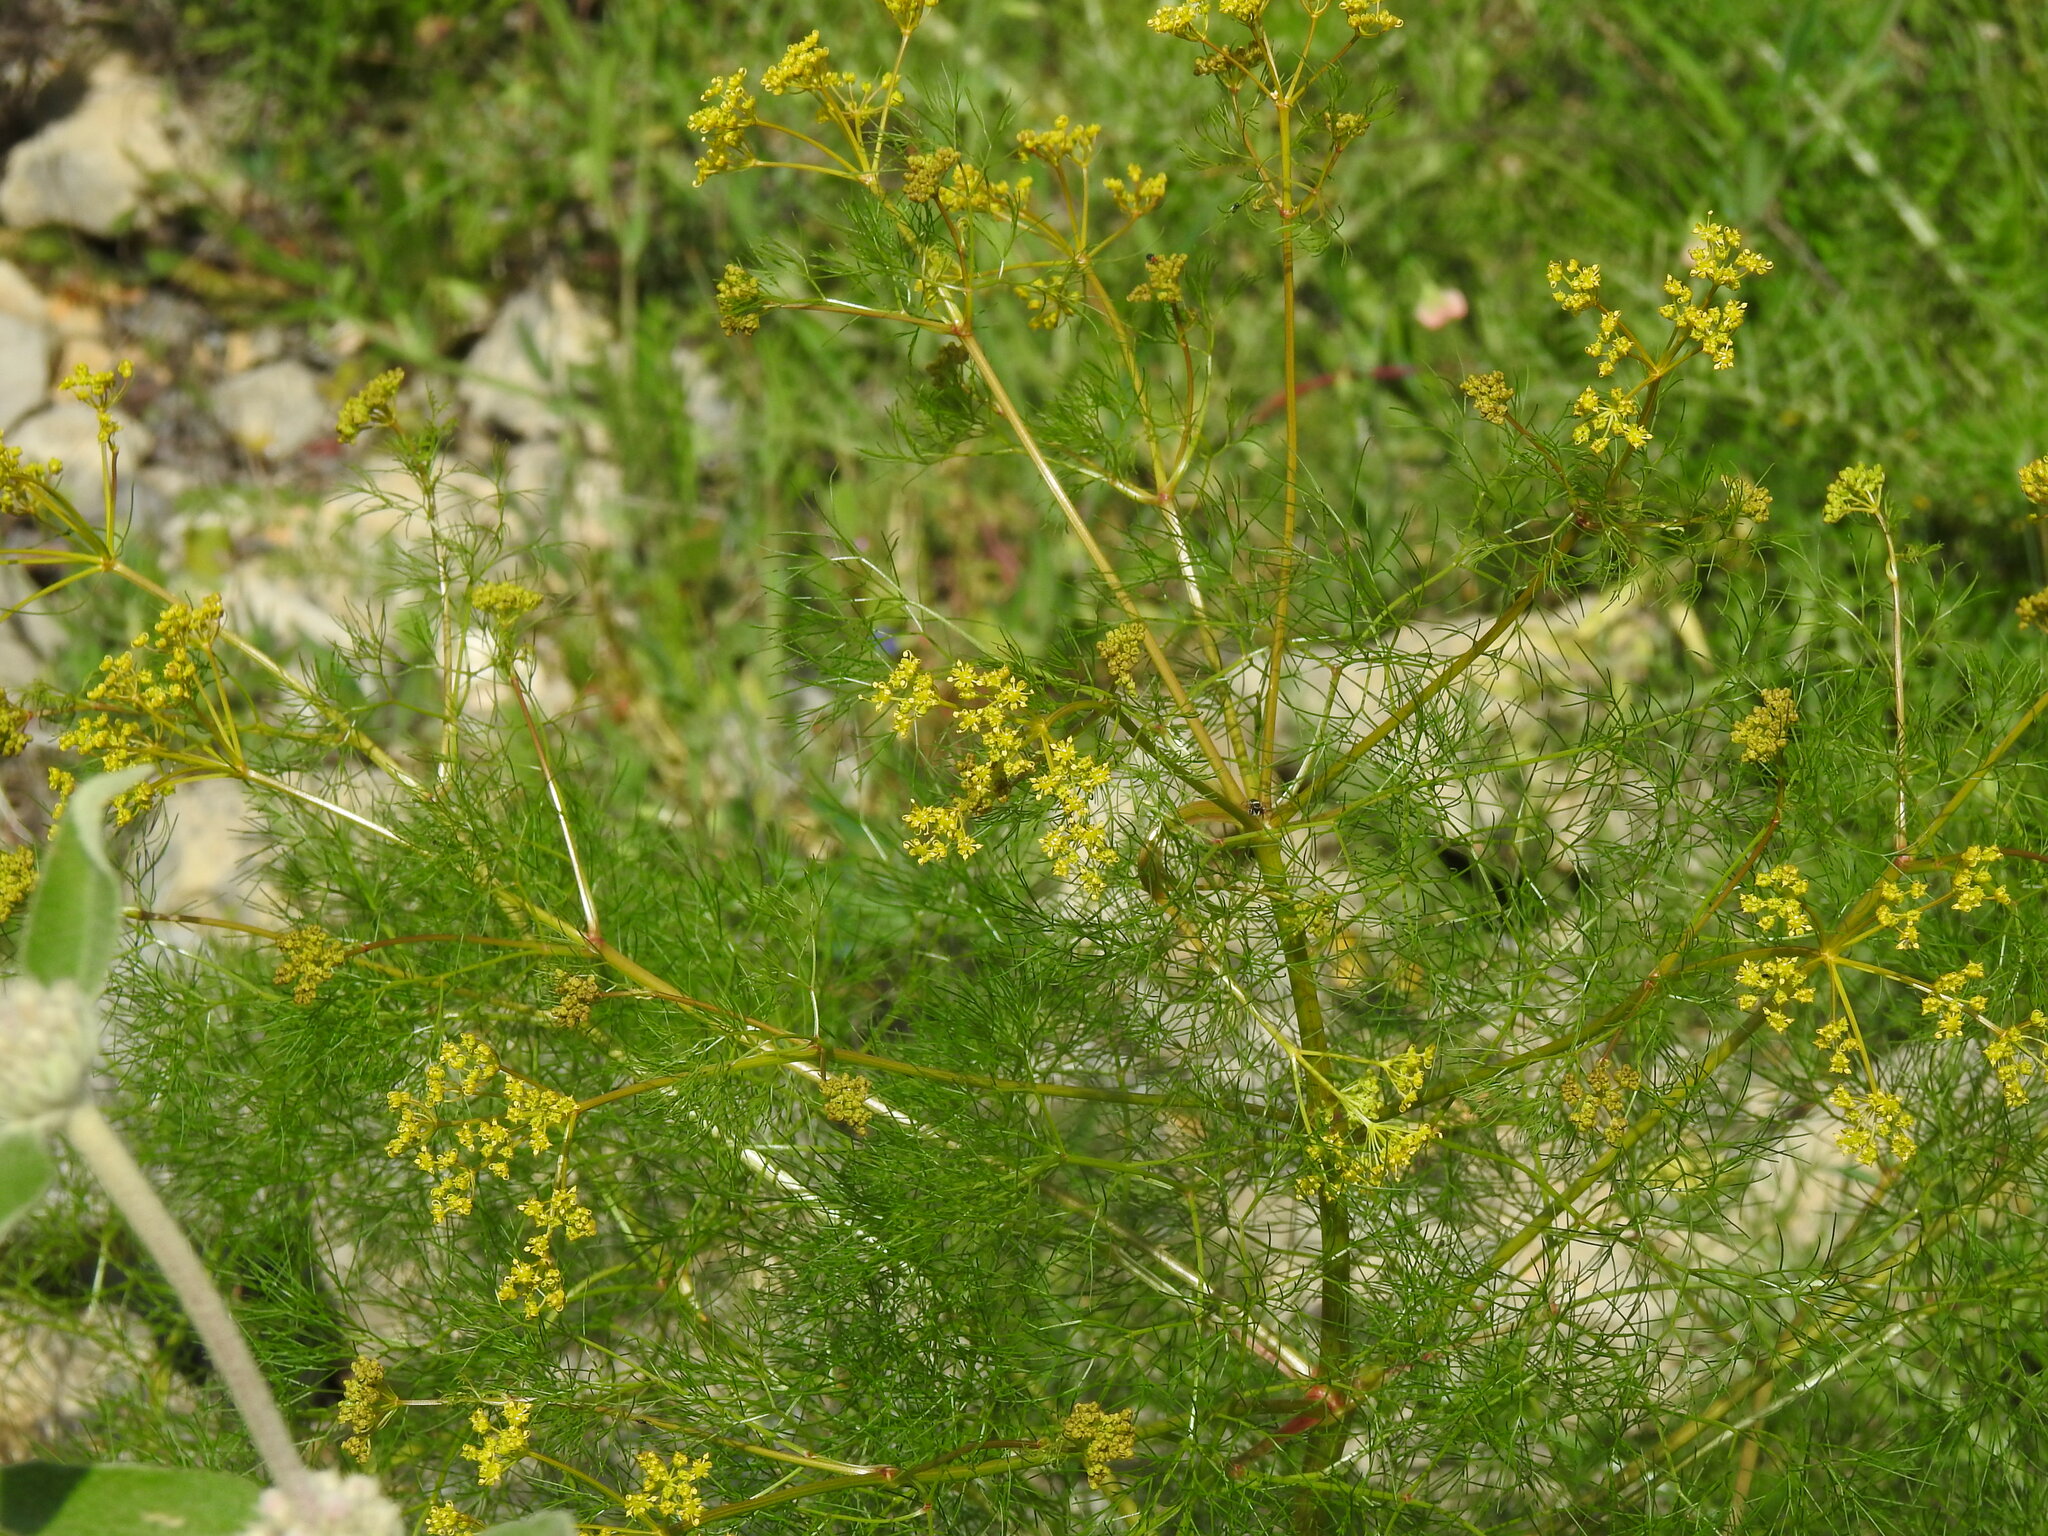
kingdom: Plantae
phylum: Tracheophyta
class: Magnoliopsida
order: Apiales
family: Apiaceae
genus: Prangos
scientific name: Prangos trifida
